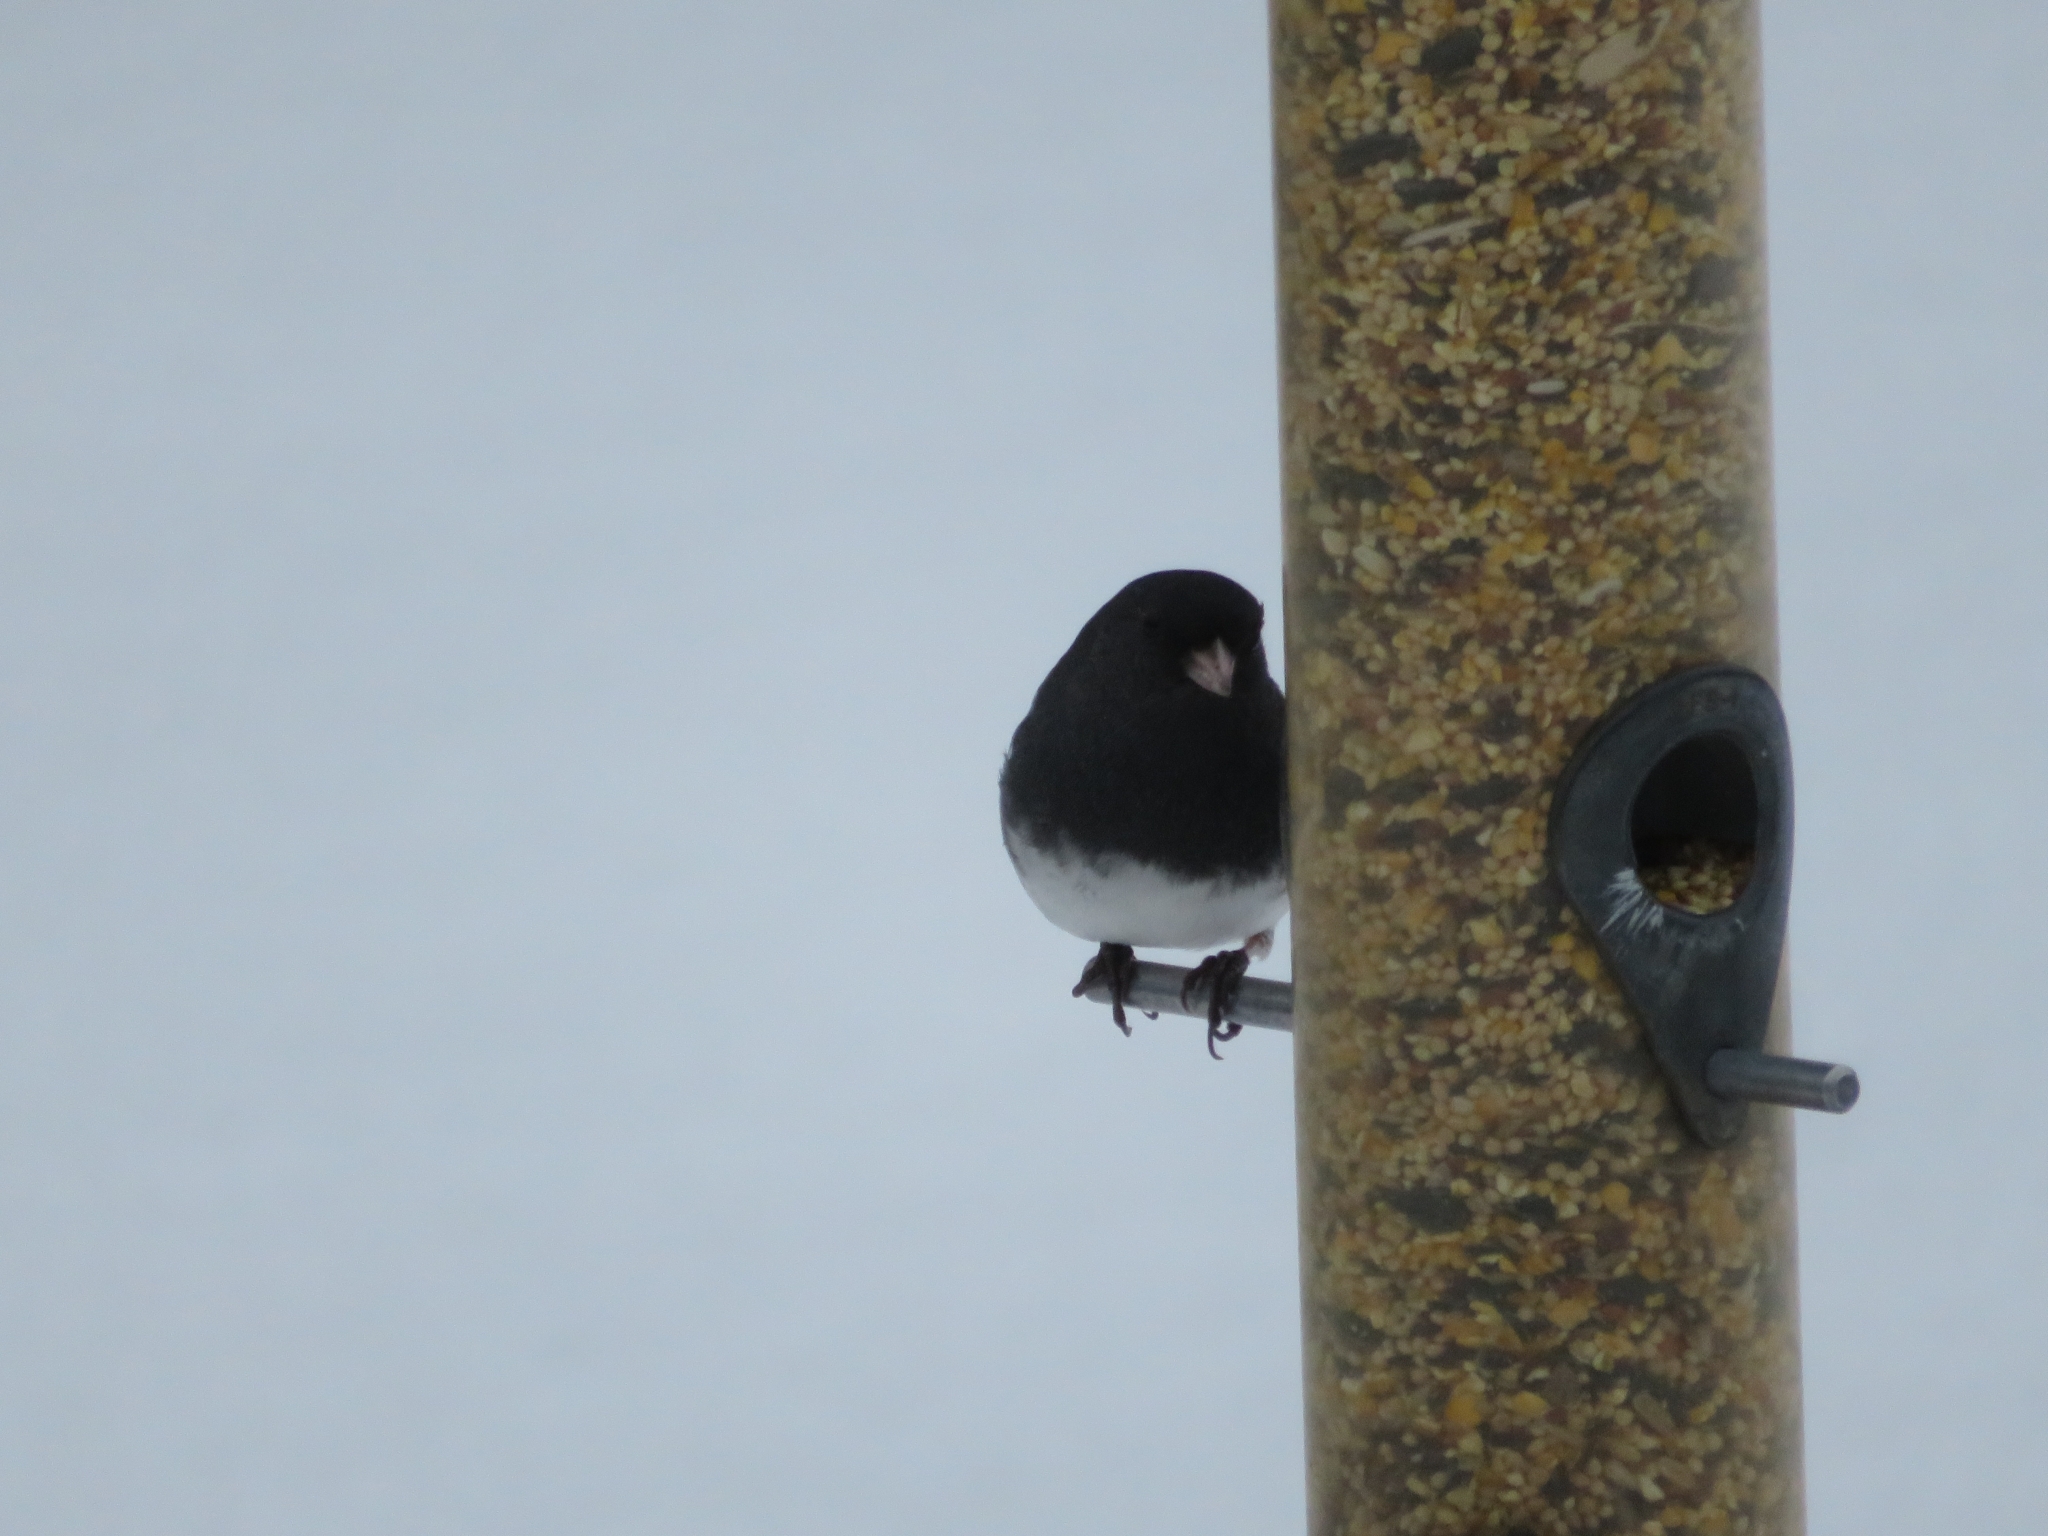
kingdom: Animalia
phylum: Chordata
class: Aves
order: Passeriformes
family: Passerellidae
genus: Junco
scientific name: Junco hyemalis
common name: Dark-eyed junco
